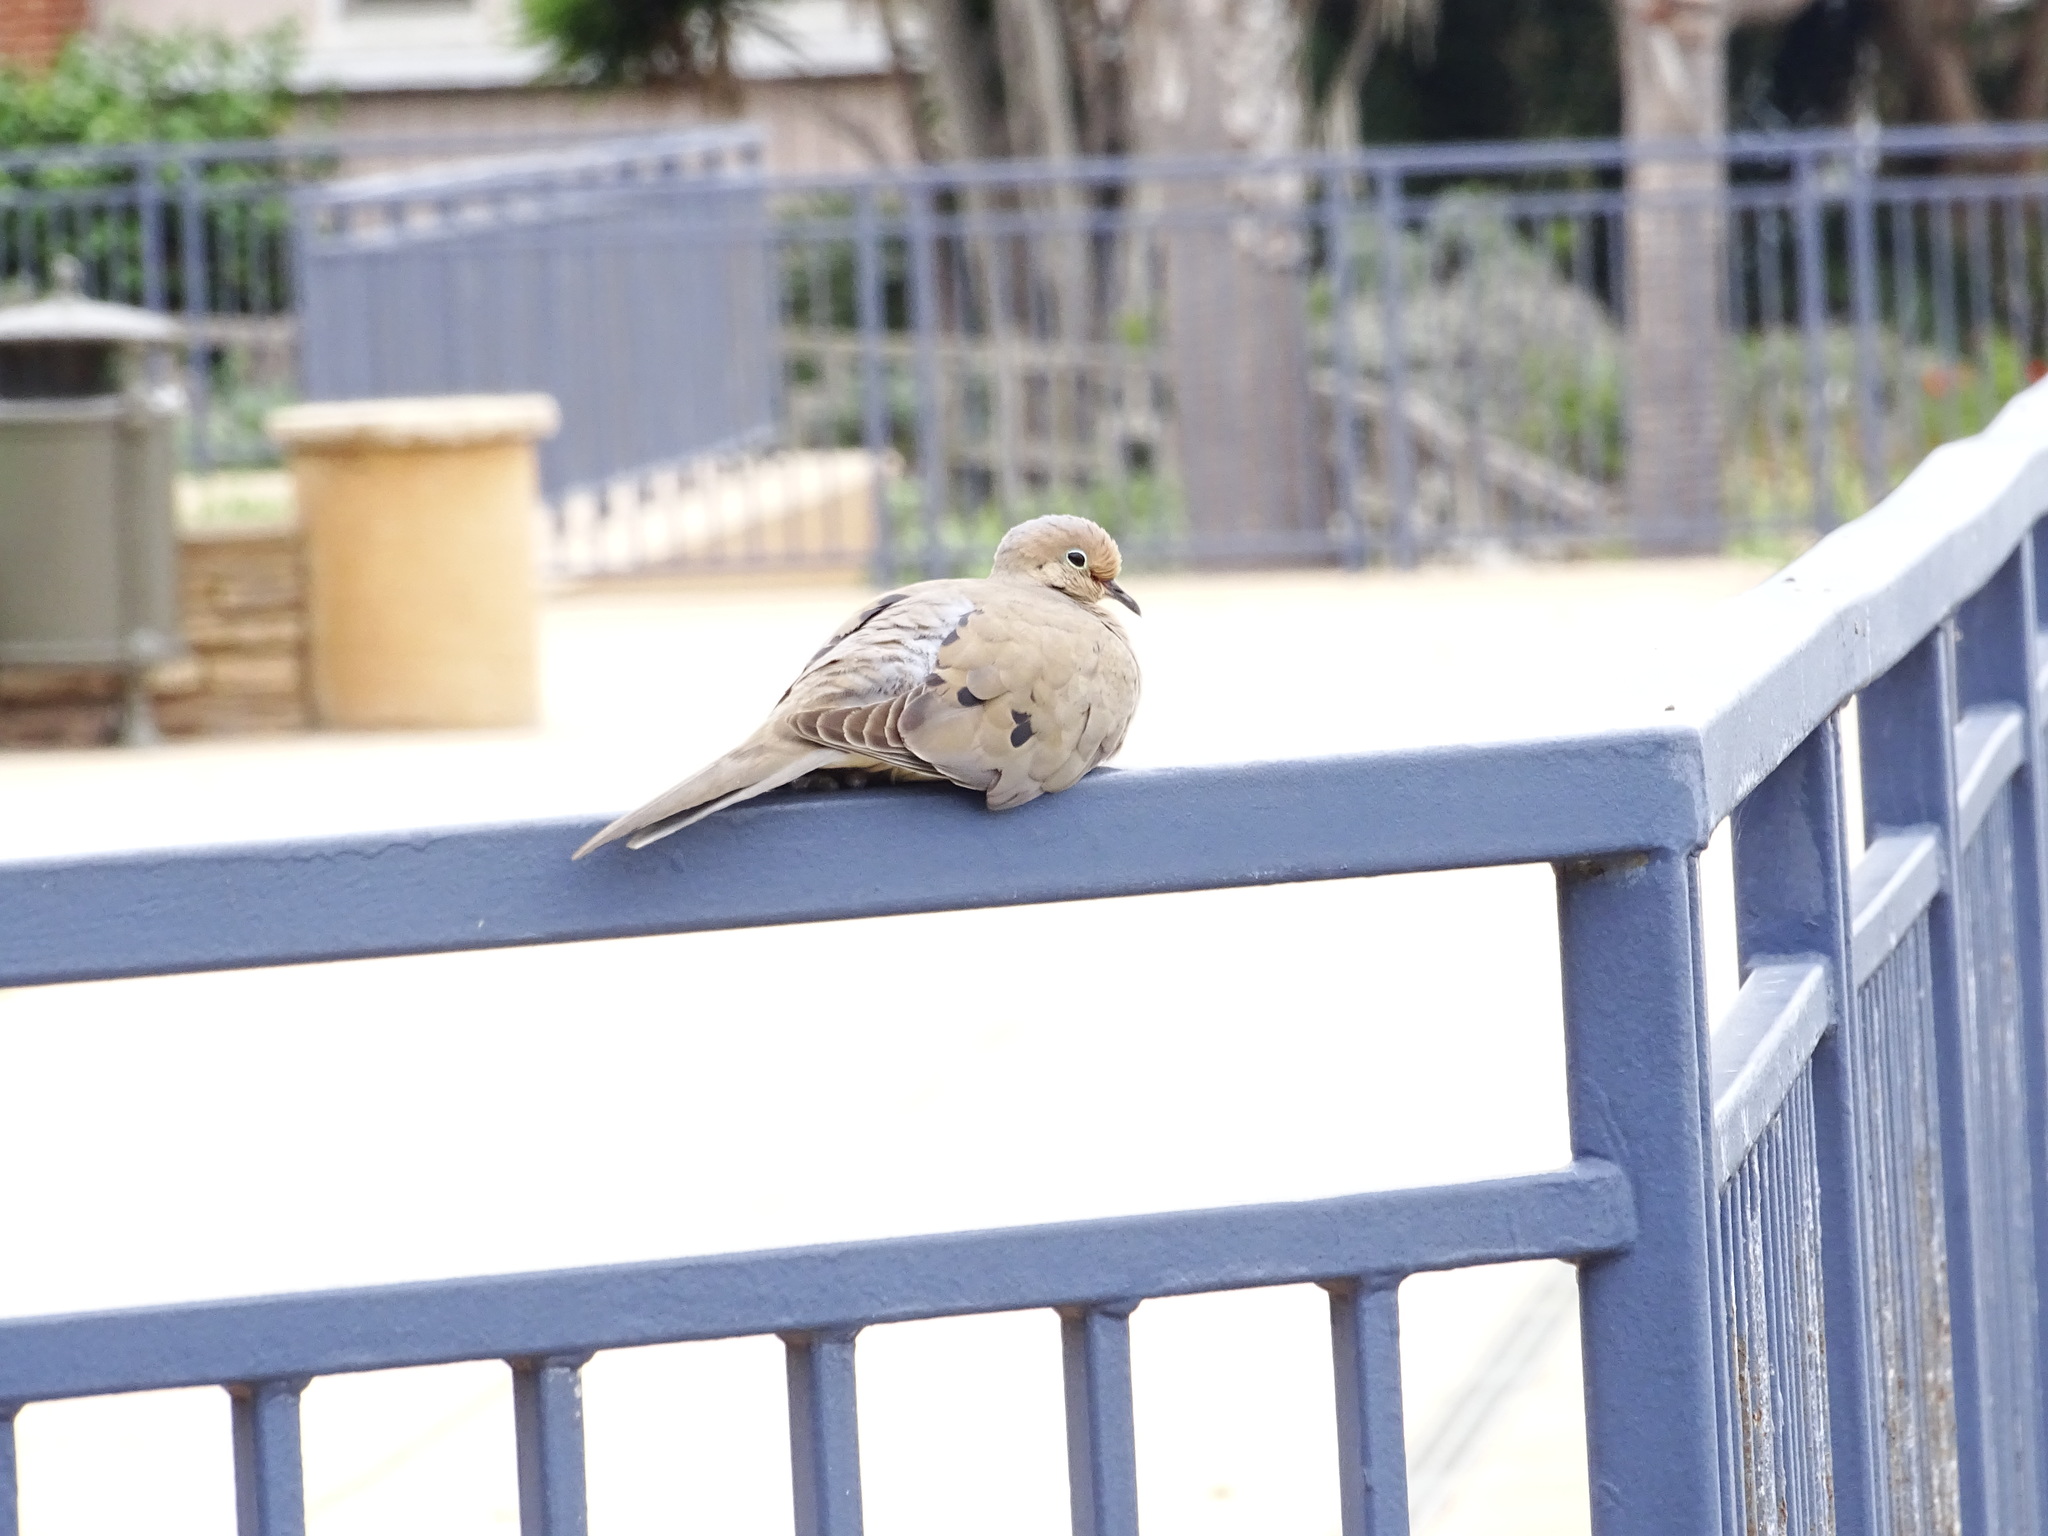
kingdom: Animalia
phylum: Chordata
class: Aves
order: Columbiformes
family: Columbidae
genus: Zenaida
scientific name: Zenaida macroura
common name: Mourning dove
